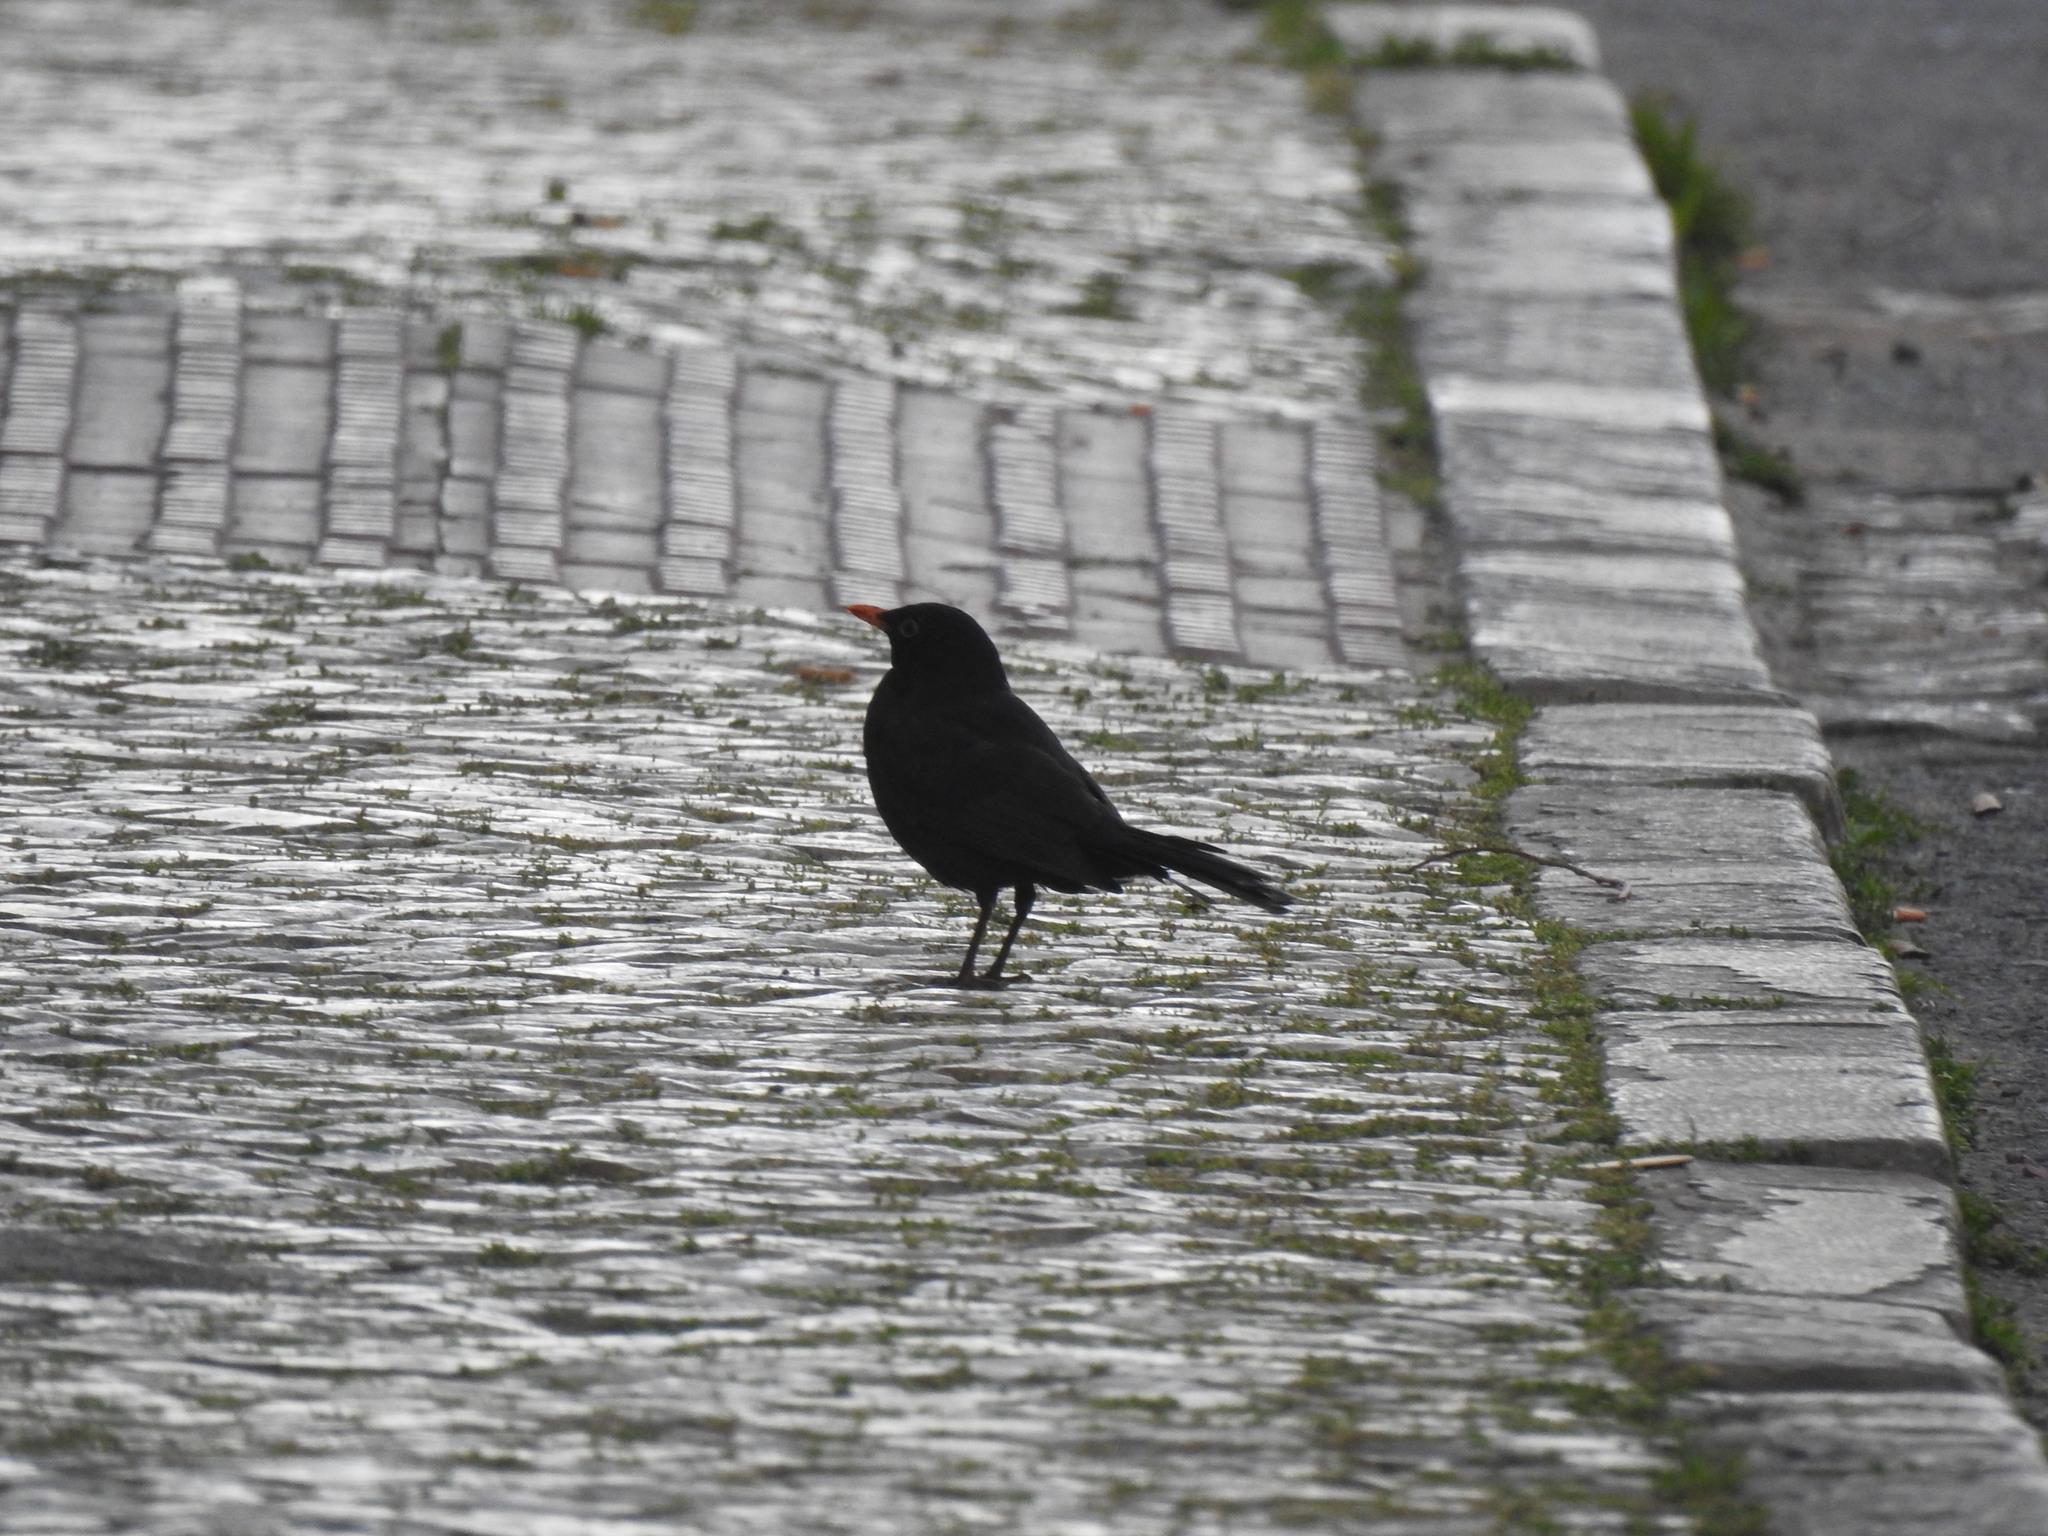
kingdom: Animalia
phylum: Chordata
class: Aves
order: Passeriformes
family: Turdidae
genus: Turdus
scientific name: Turdus merula
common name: Common blackbird
